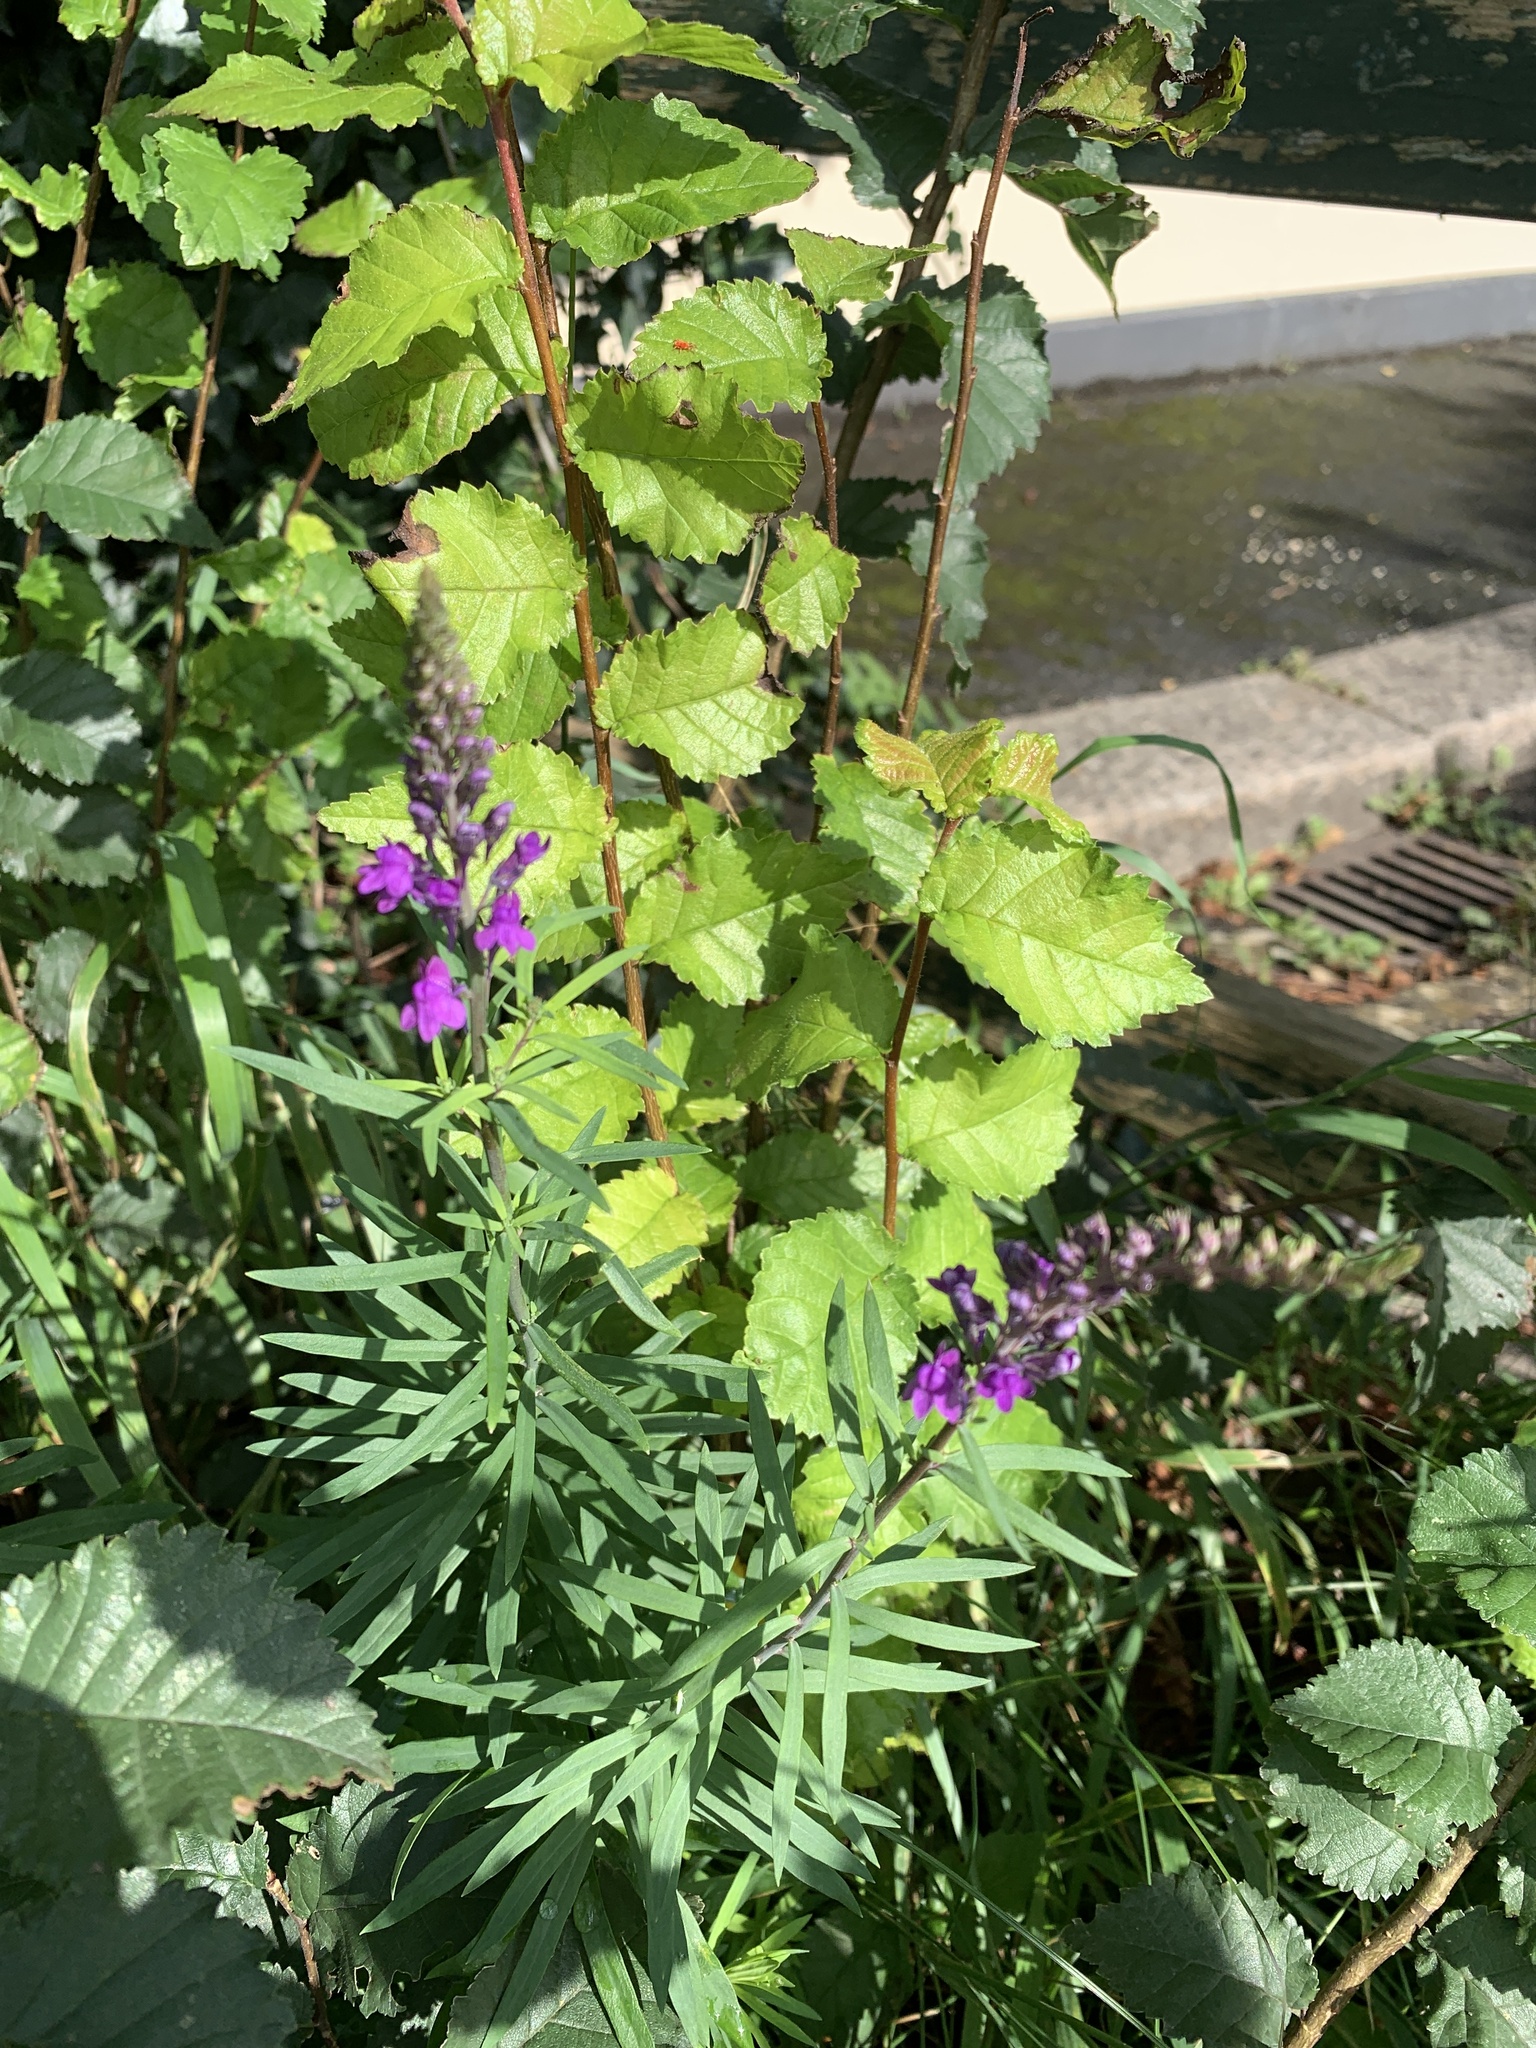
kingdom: Plantae
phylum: Tracheophyta
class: Magnoliopsida
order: Lamiales
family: Plantaginaceae
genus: Linaria
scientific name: Linaria purpurea
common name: Purple toadflax
